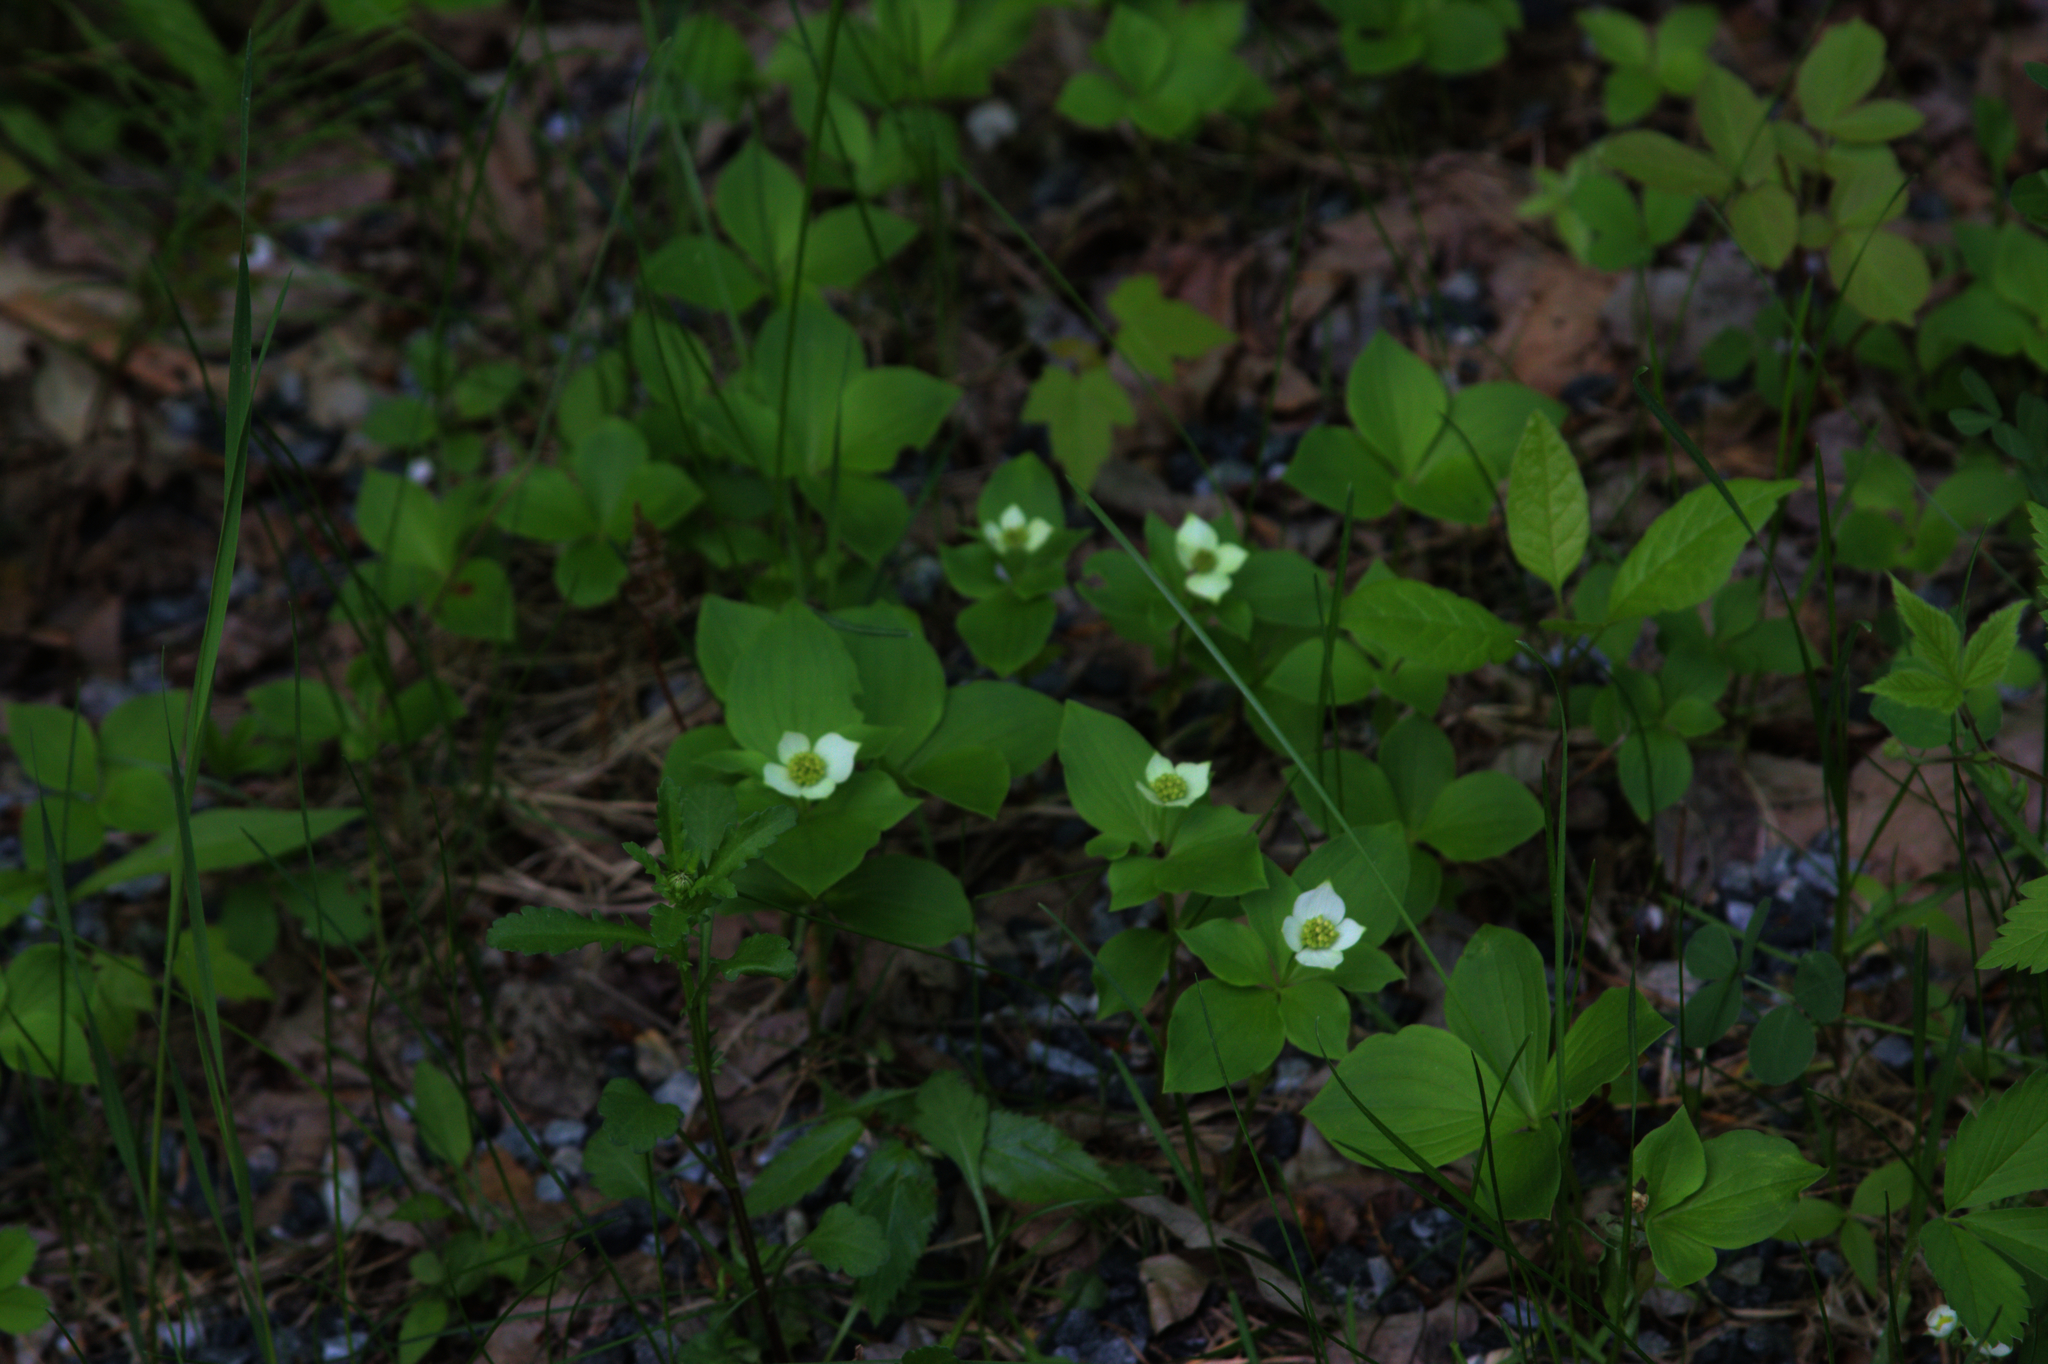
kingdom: Plantae
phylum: Tracheophyta
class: Magnoliopsida
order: Cornales
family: Cornaceae
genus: Cornus
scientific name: Cornus canadensis
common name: Creeping dogwood
